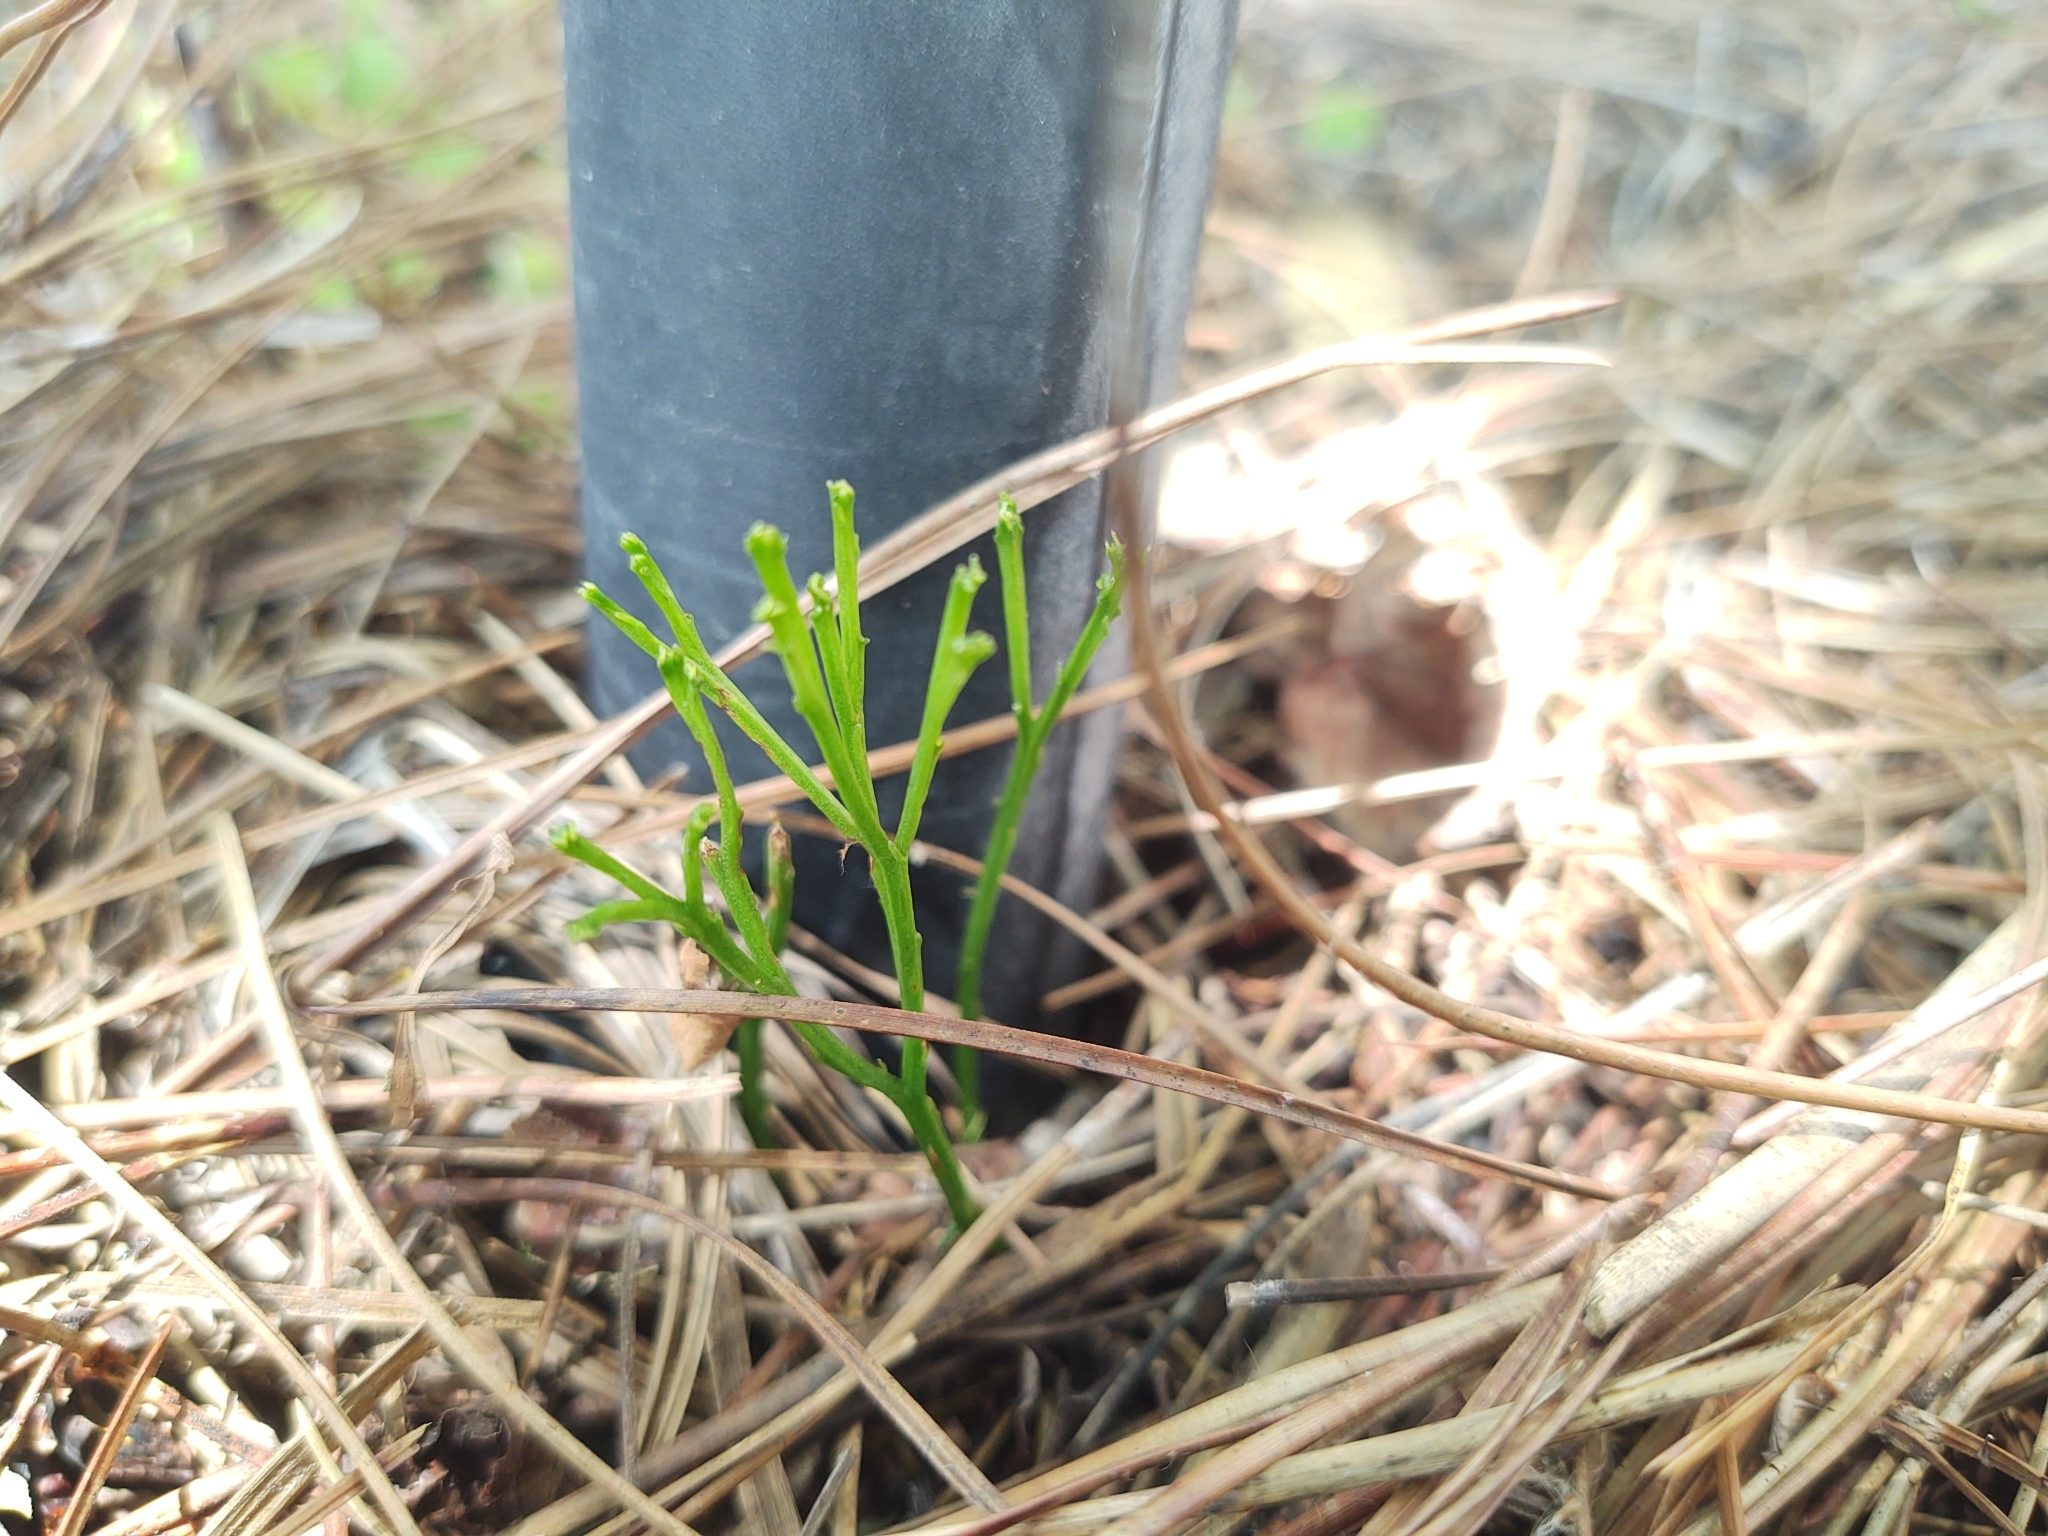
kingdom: Plantae
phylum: Tracheophyta
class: Polypodiopsida
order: Psilotales
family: Psilotaceae
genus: Psilotum
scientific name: Psilotum nudum
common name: Skeleton fork fern
